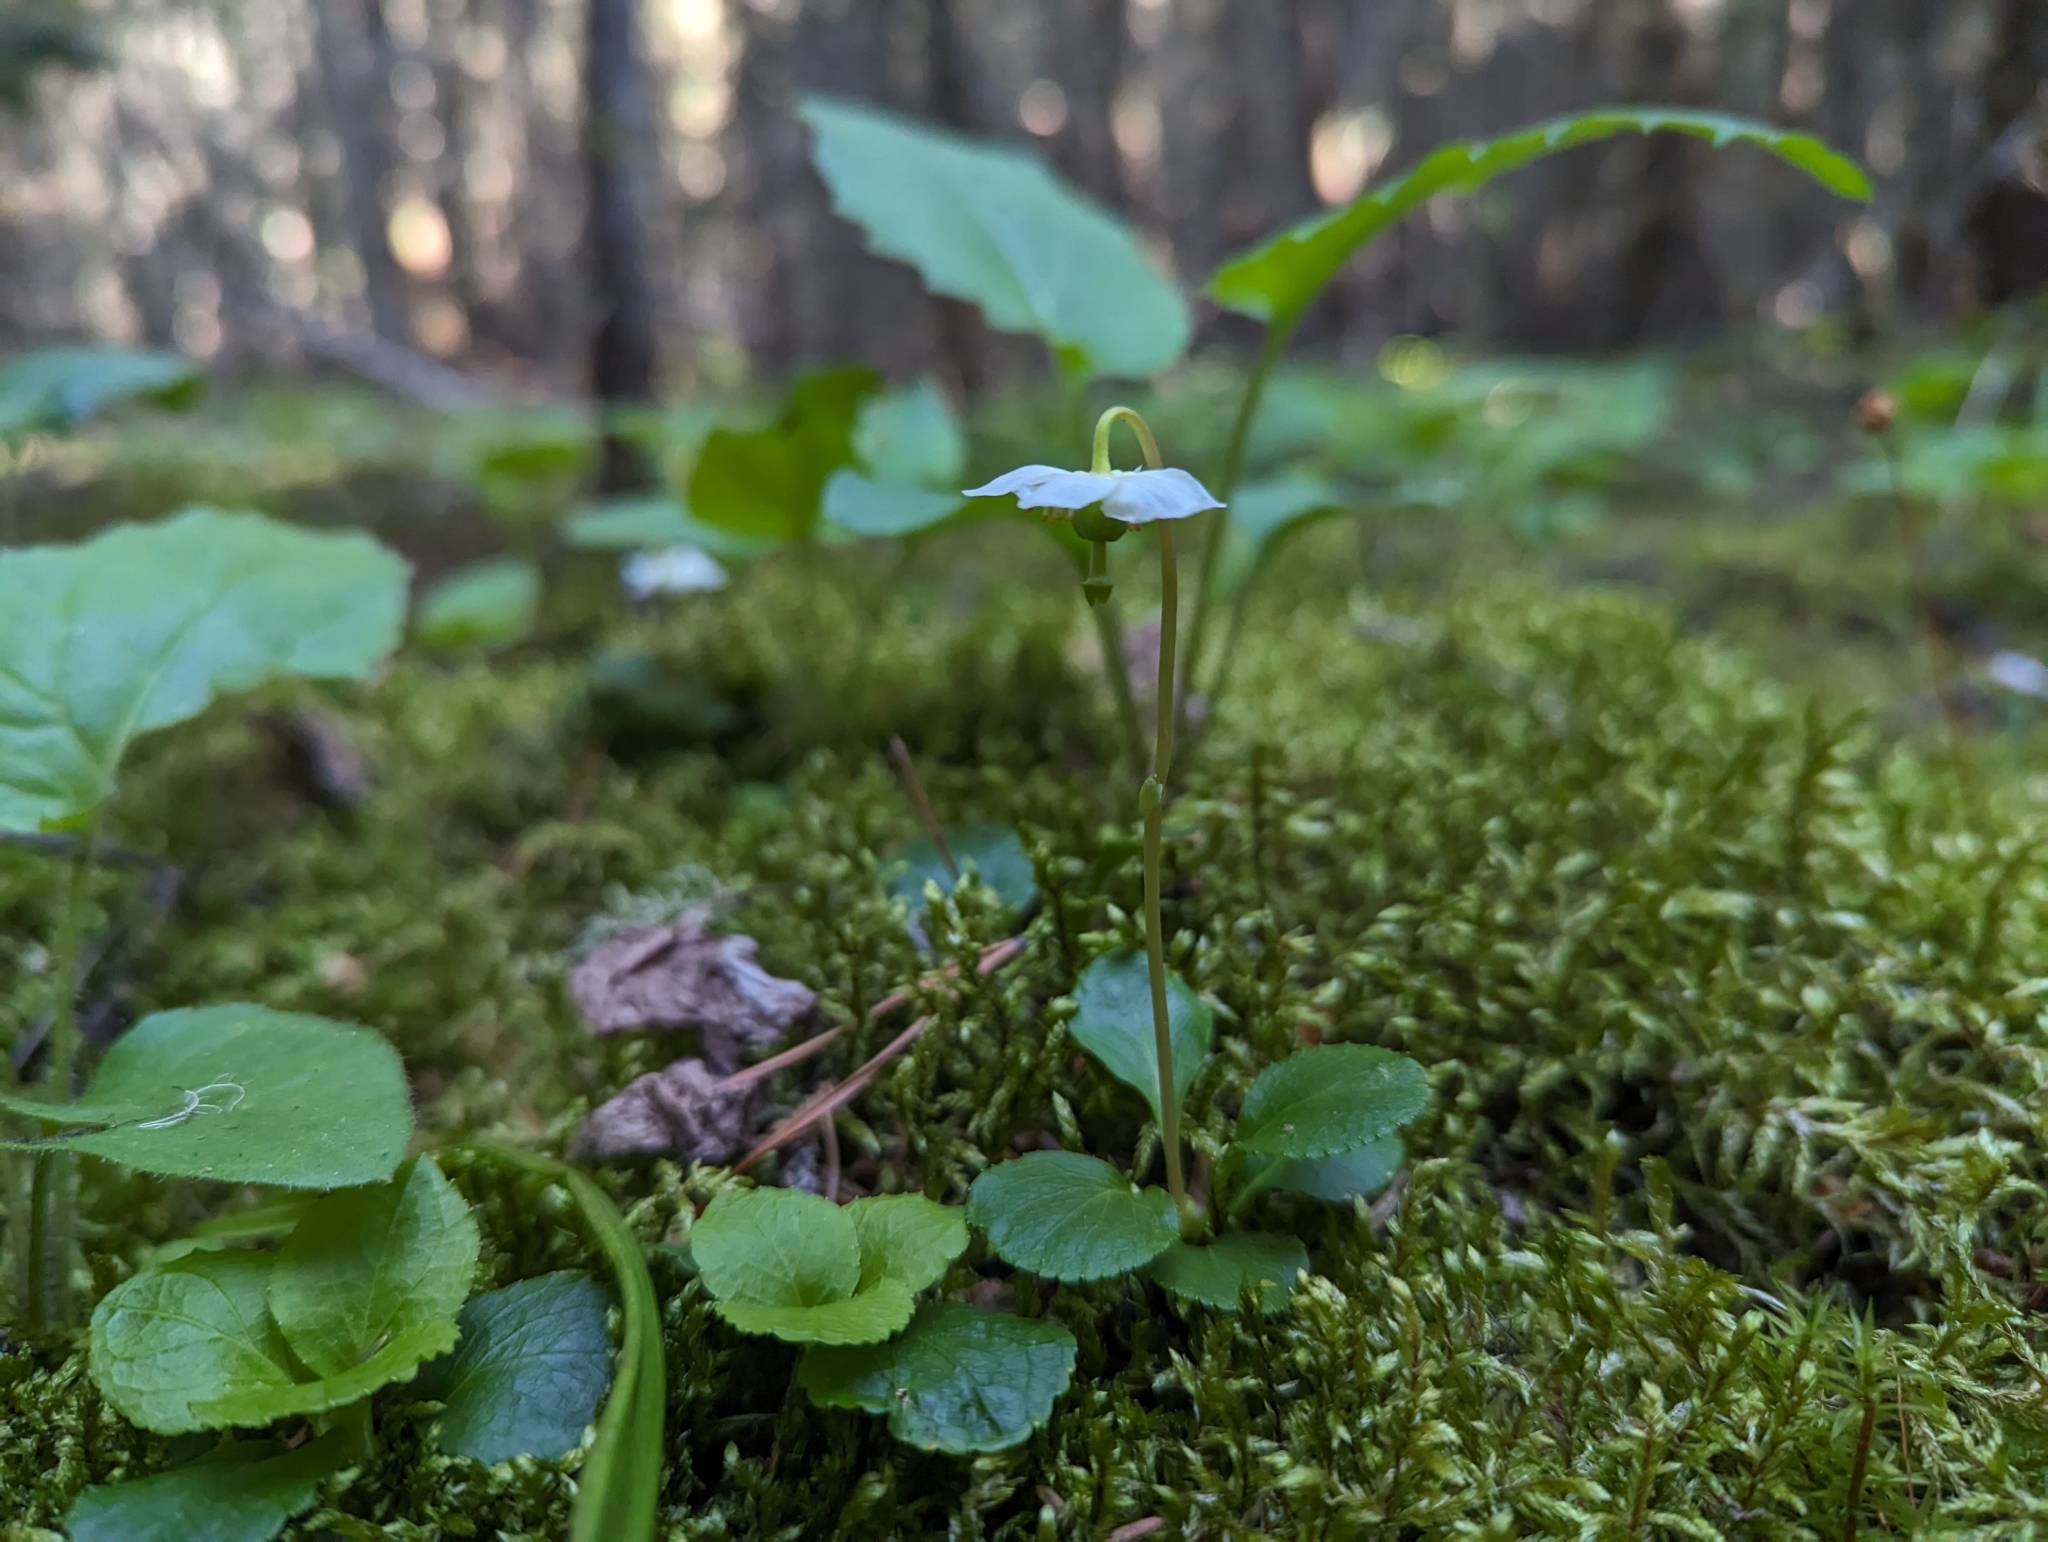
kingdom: Plantae
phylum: Tracheophyta
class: Magnoliopsida
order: Ericales
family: Ericaceae
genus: Moneses
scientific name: Moneses uniflora
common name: One-flowered wintergreen
